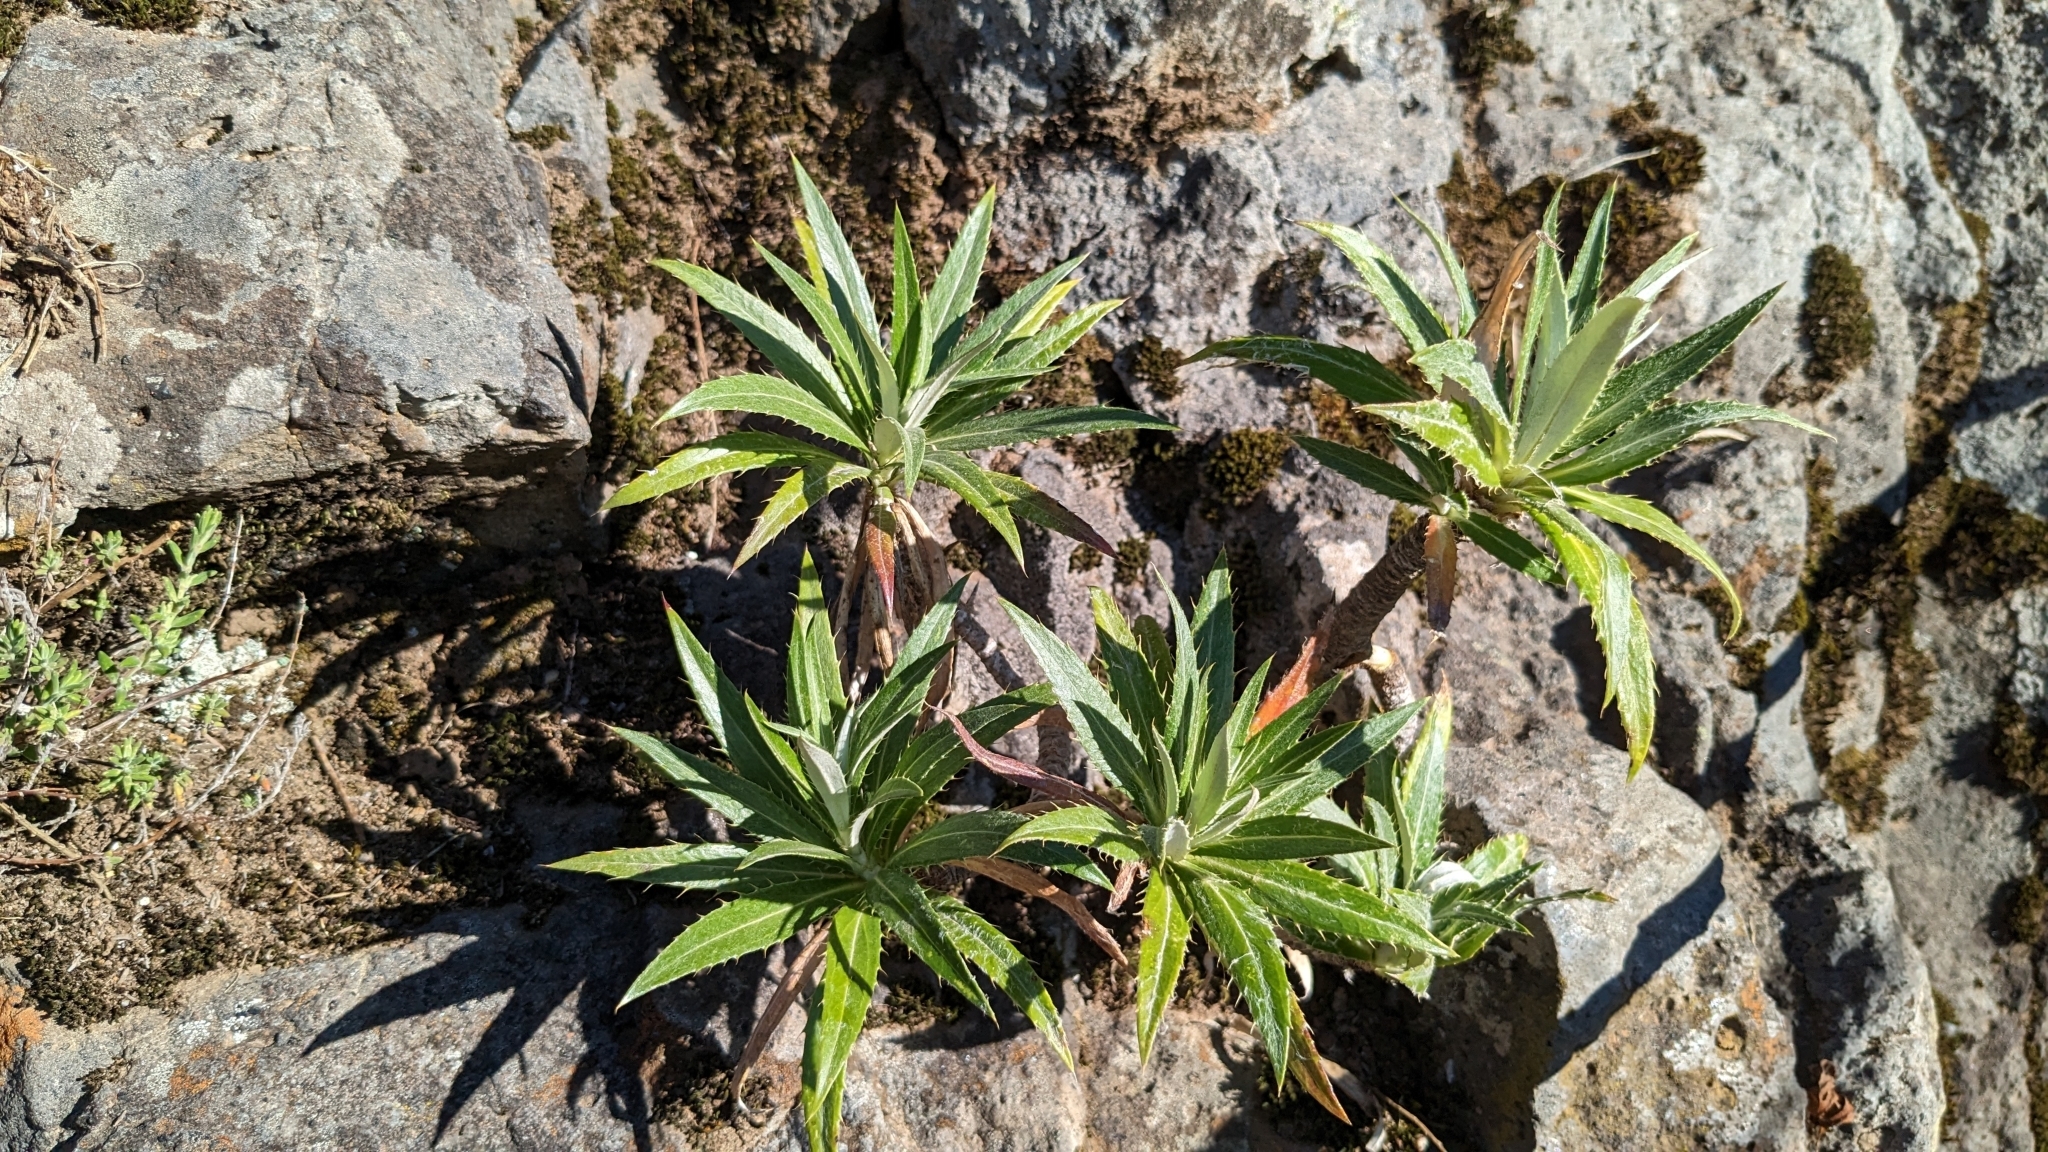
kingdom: Plantae
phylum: Tracheophyta
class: Magnoliopsida
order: Asterales
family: Asteraceae
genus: Carlina
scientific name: Carlina salicifolia
